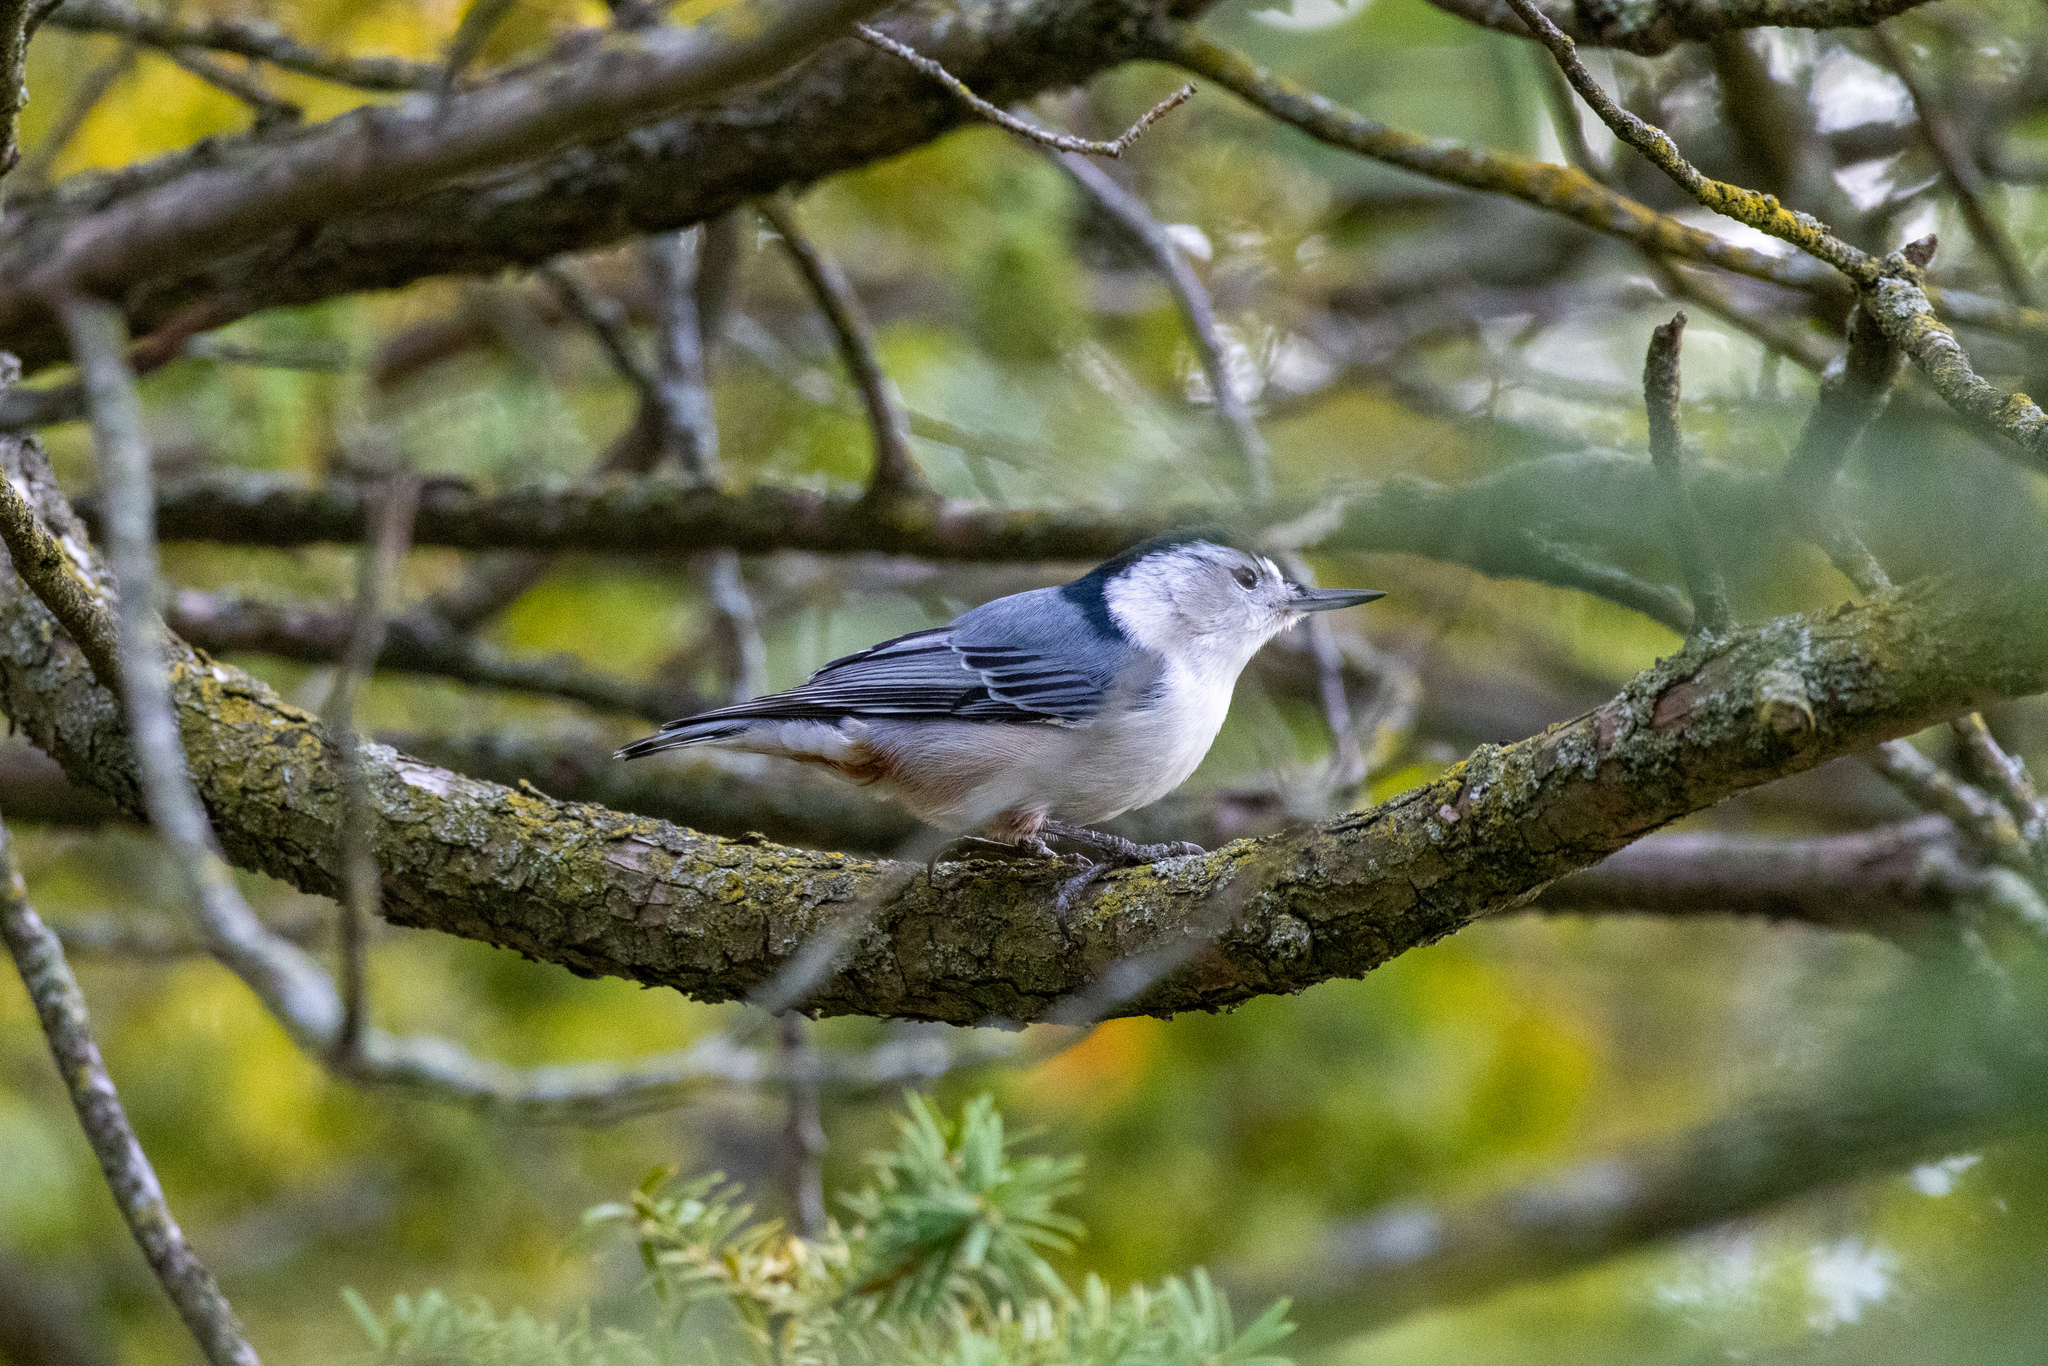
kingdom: Animalia
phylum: Chordata
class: Aves
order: Passeriformes
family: Sittidae
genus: Sitta
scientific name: Sitta carolinensis
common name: White-breasted nuthatch
